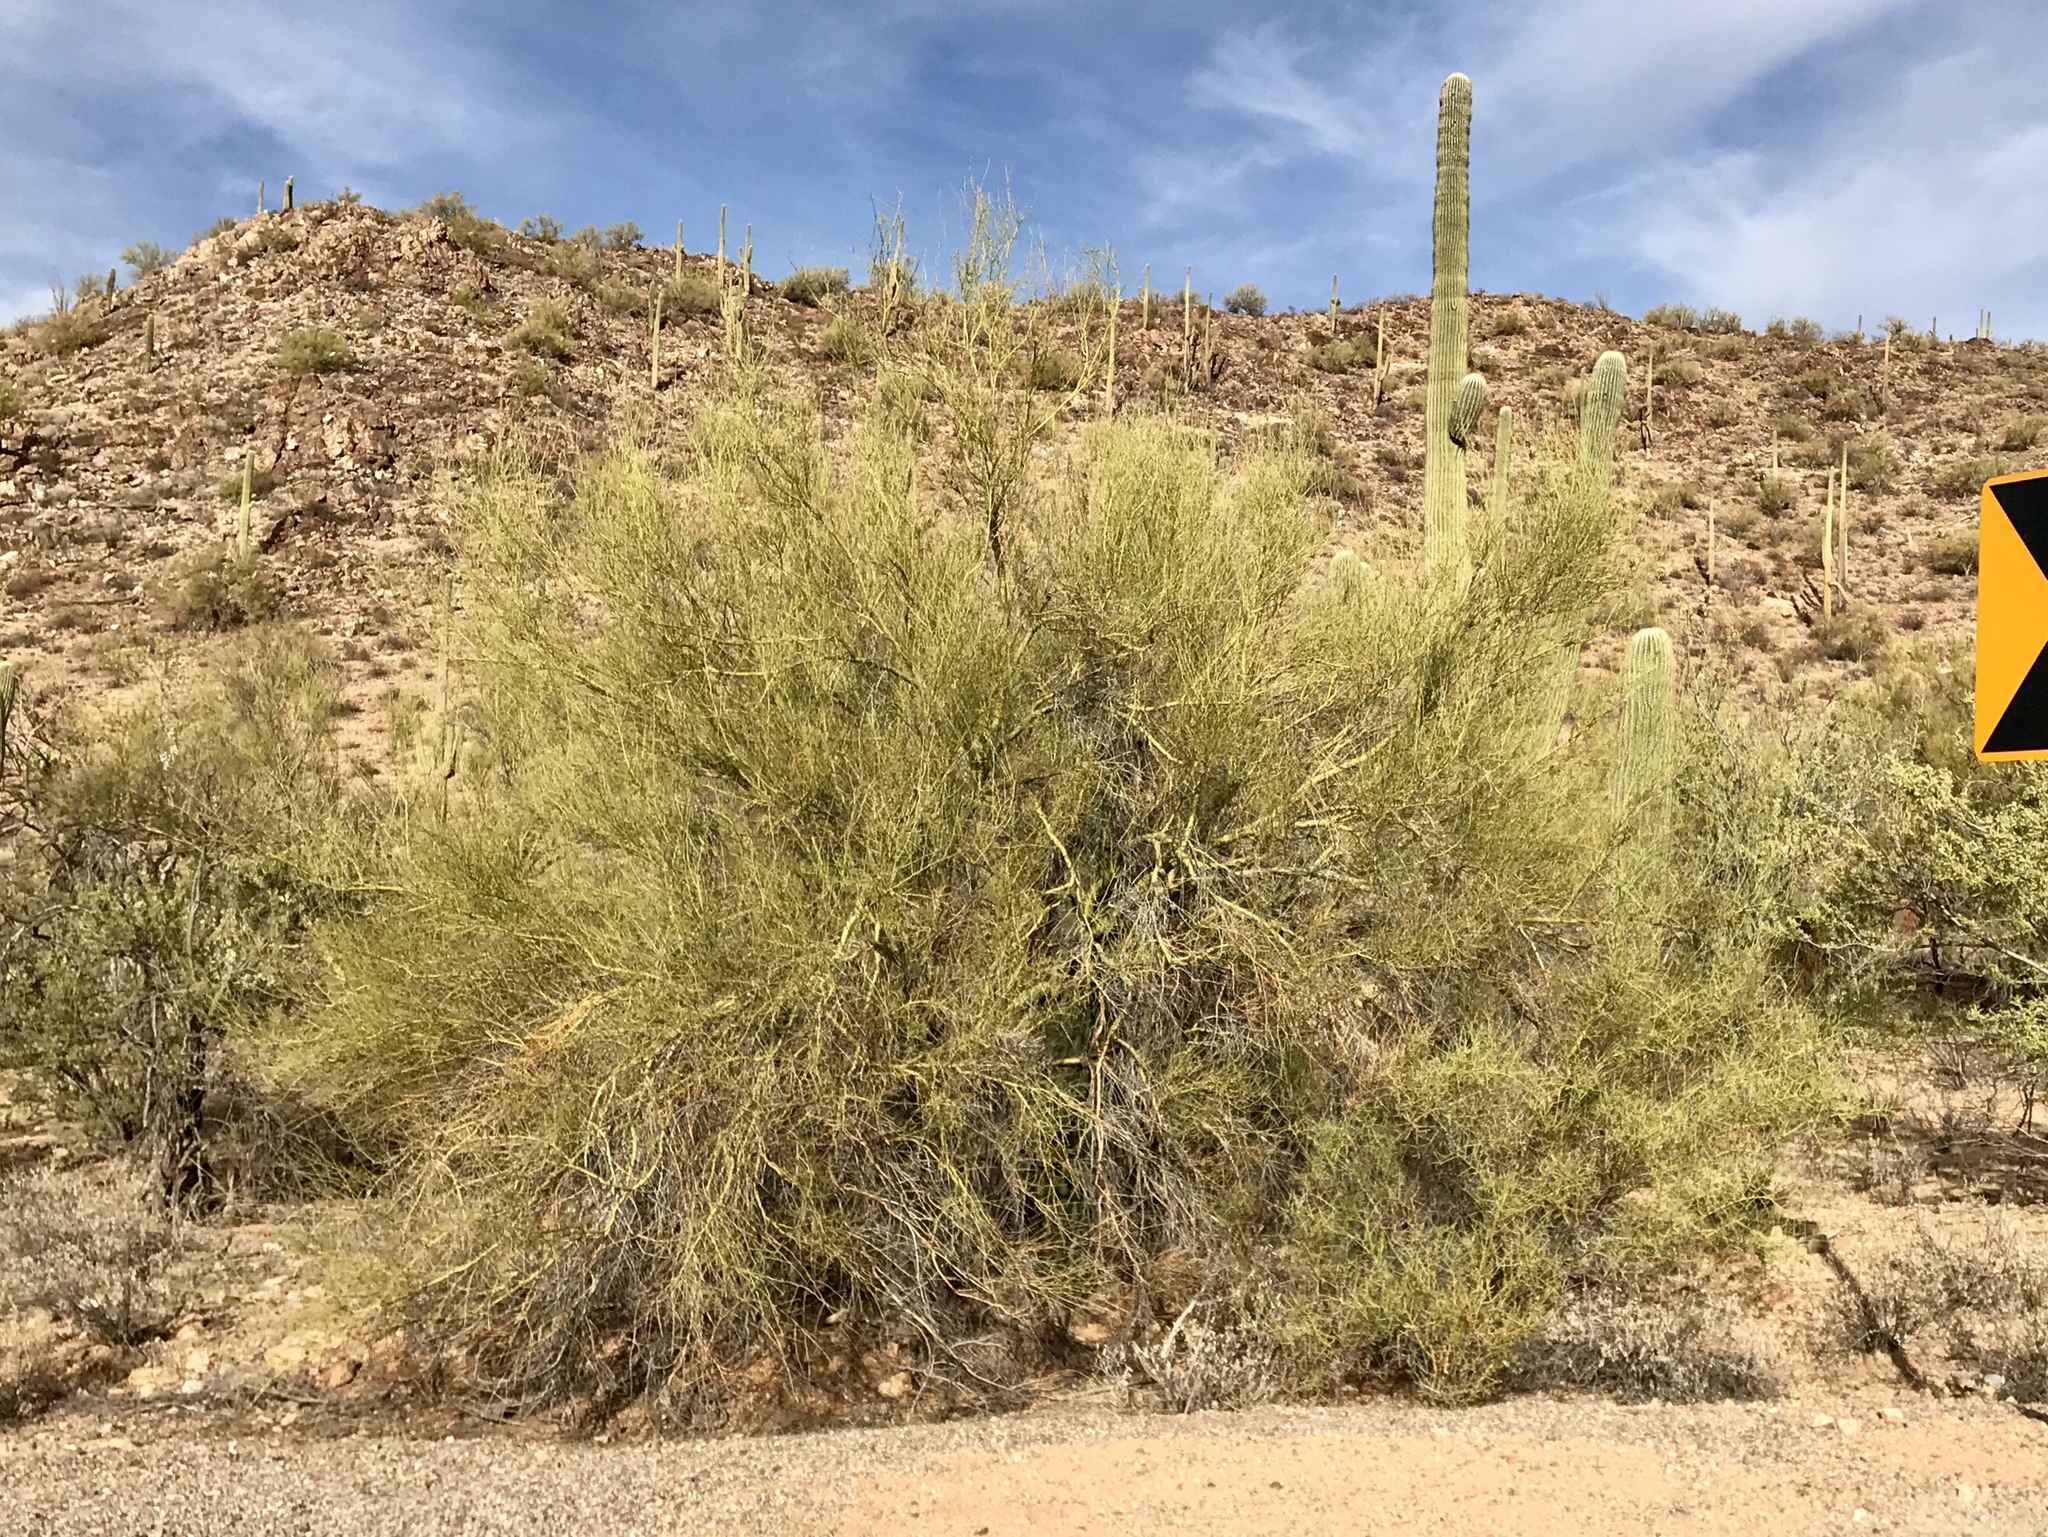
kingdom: Plantae
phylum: Tracheophyta
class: Magnoliopsida
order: Fabales
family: Fabaceae
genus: Parkinsonia
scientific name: Parkinsonia microphylla
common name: Yellow paloverde
